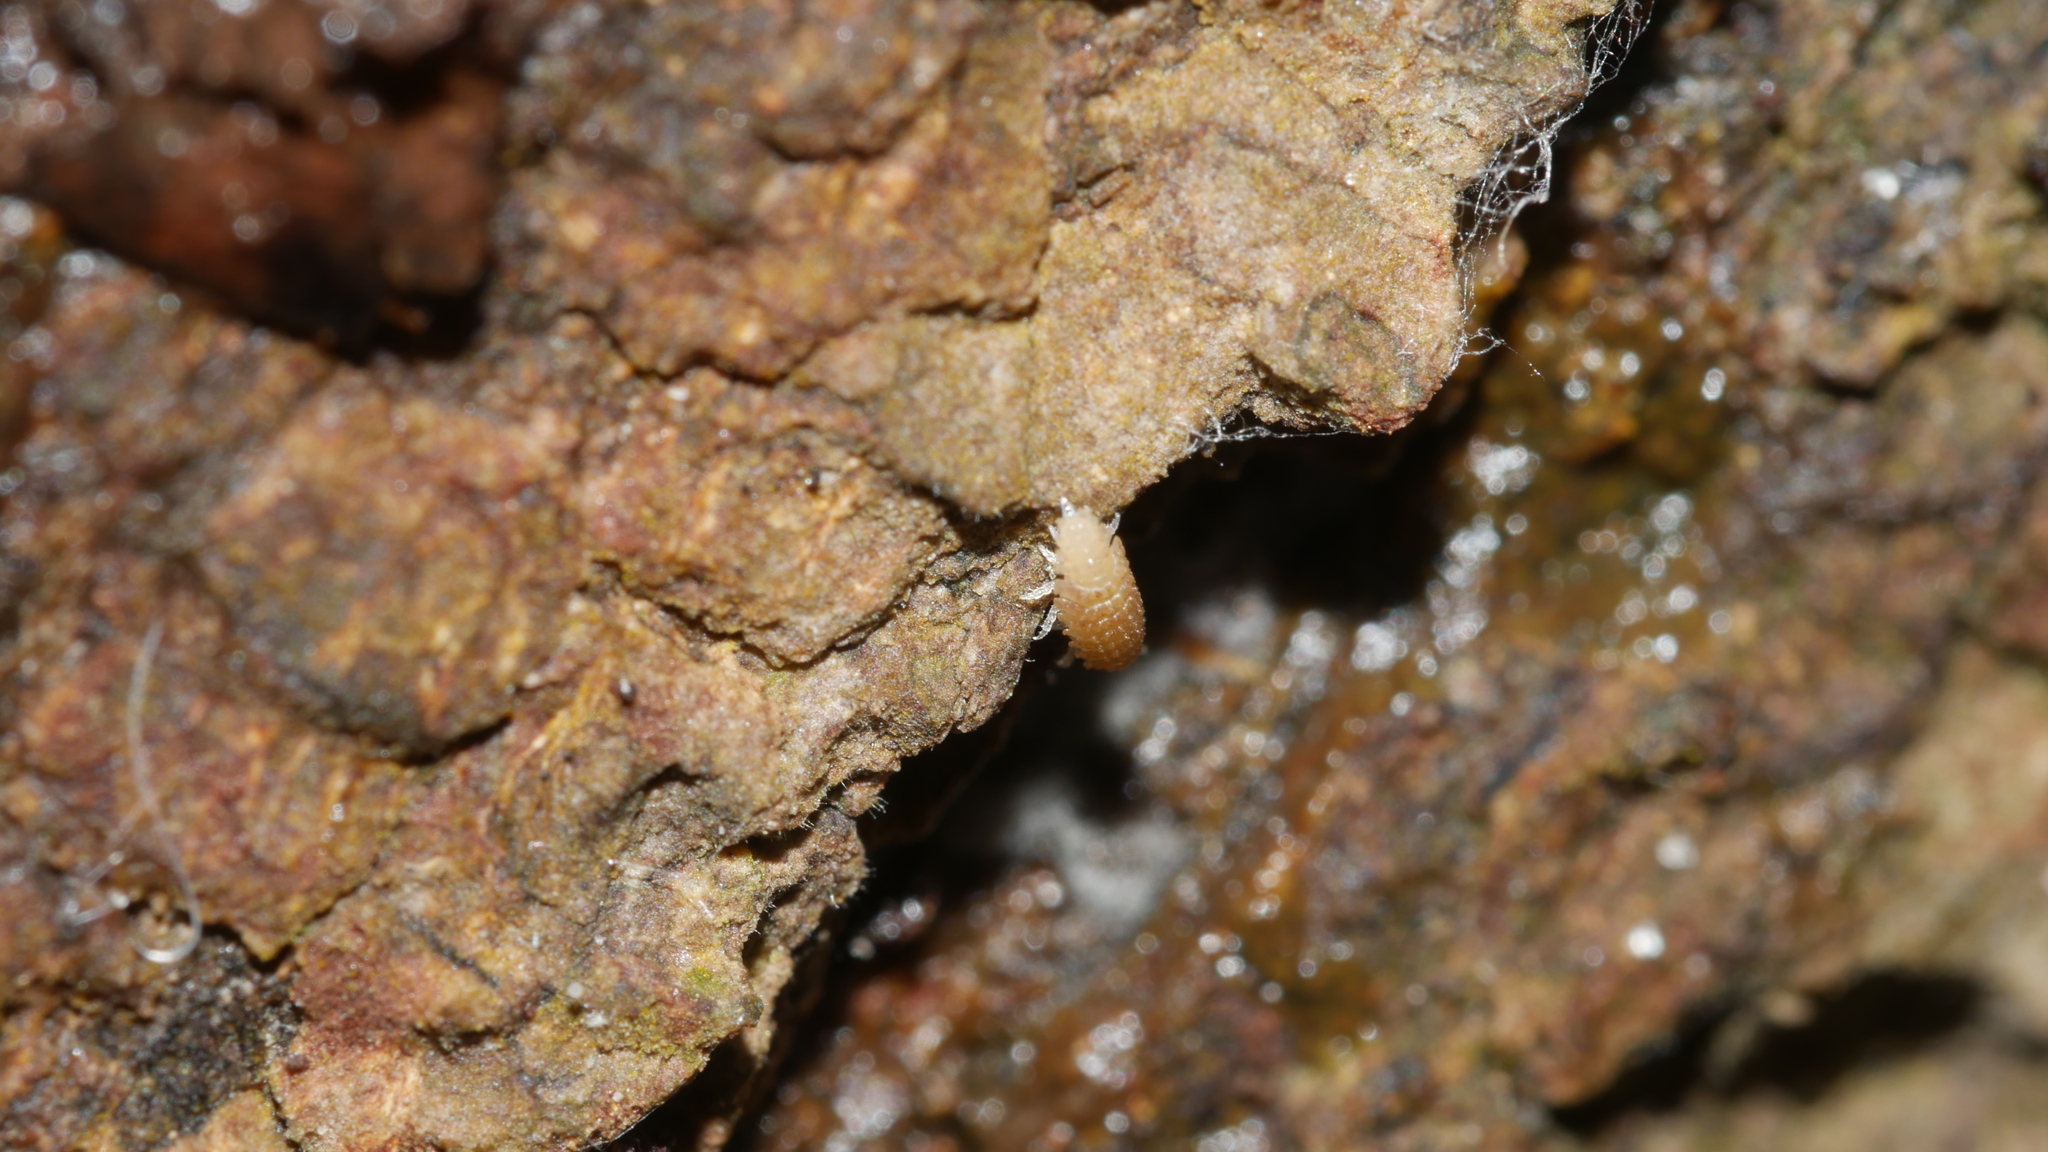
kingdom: Animalia
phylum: Arthropoda
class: Malacostraca
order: Isopoda
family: Trichoniscidae
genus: Haplophthalmus
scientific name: Haplophthalmus danicus
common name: Pillbug
